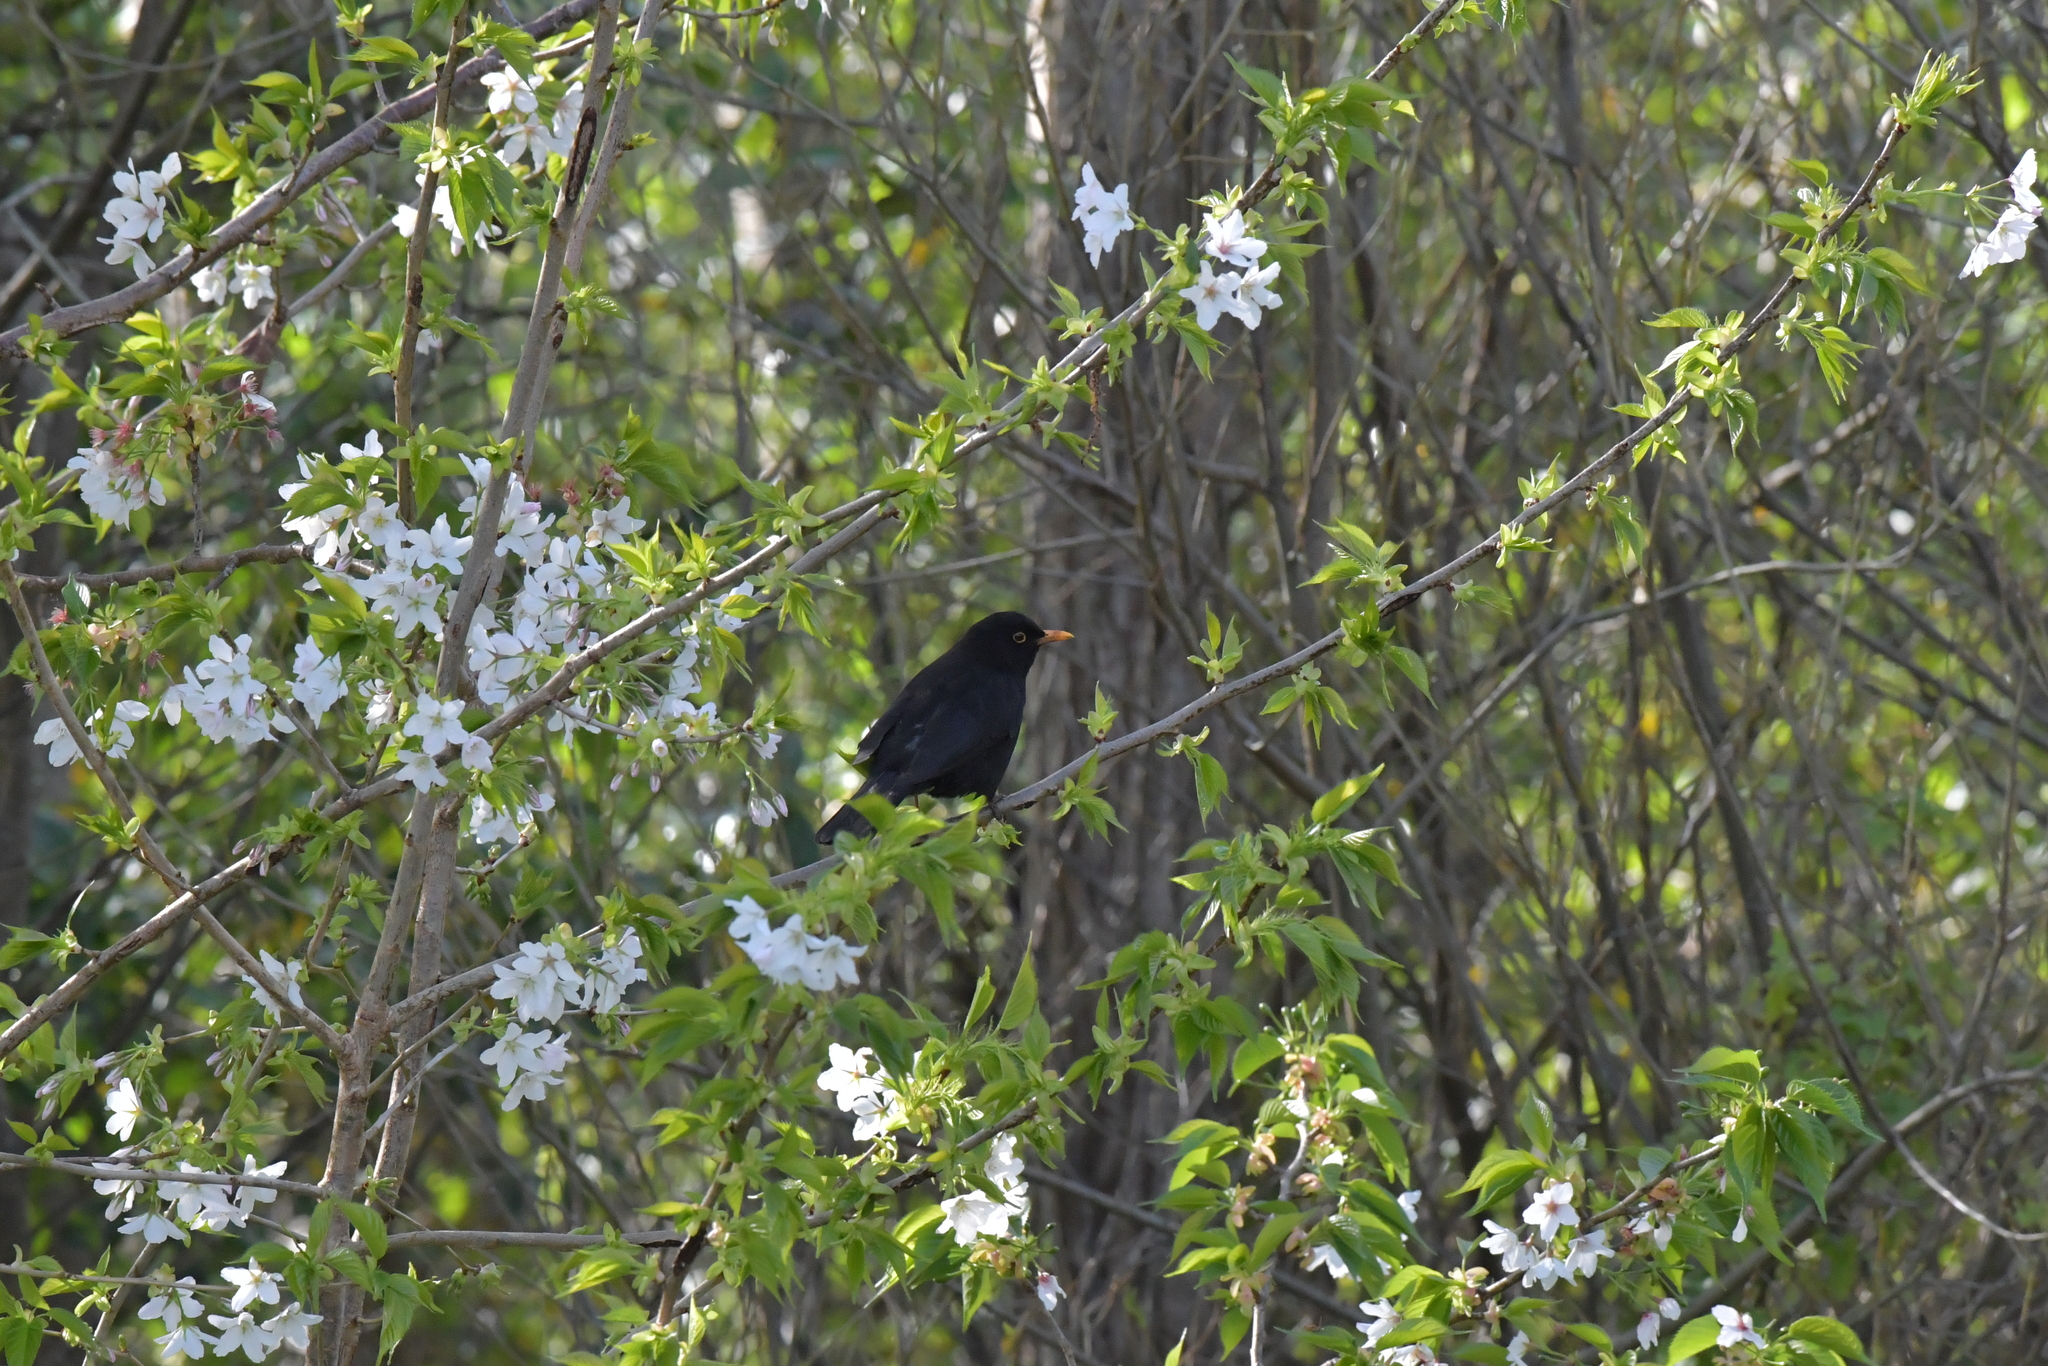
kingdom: Animalia
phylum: Chordata
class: Aves
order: Passeriformes
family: Turdidae
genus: Turdus
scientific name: Turdus merula
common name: Common blackbird
